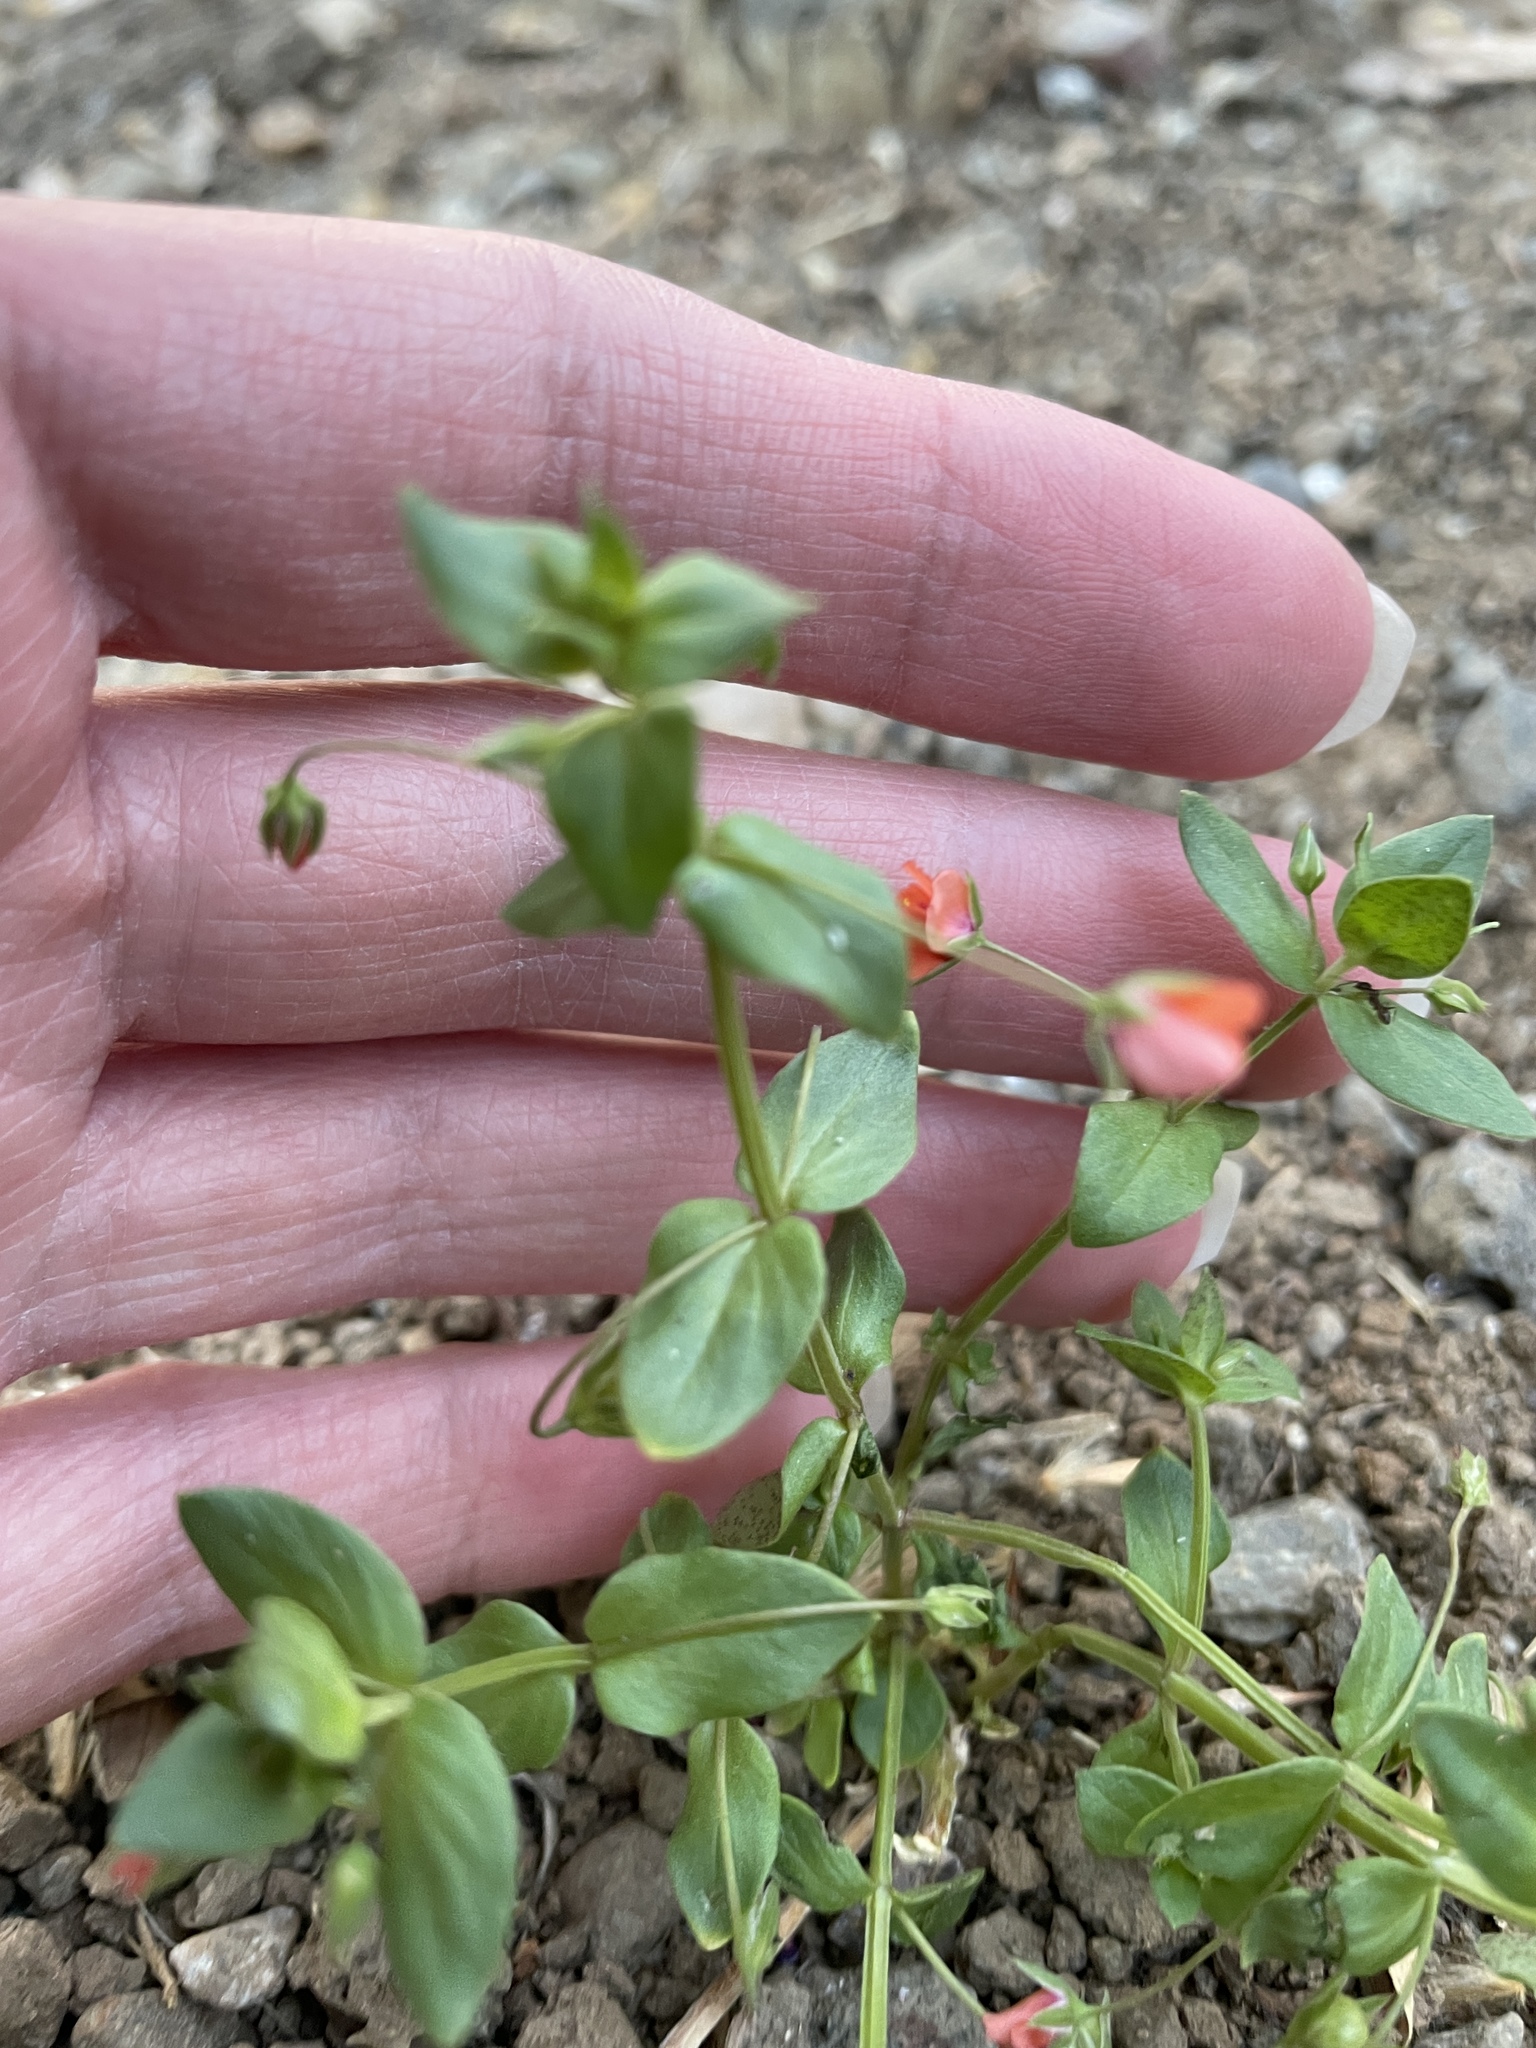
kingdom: Plantae
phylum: Tracheophyta
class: Magnoliopsida
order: Ericales
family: Primulaceae
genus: Lysimachia
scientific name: Lysimachia arvensis
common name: Scarlet pimpernel
